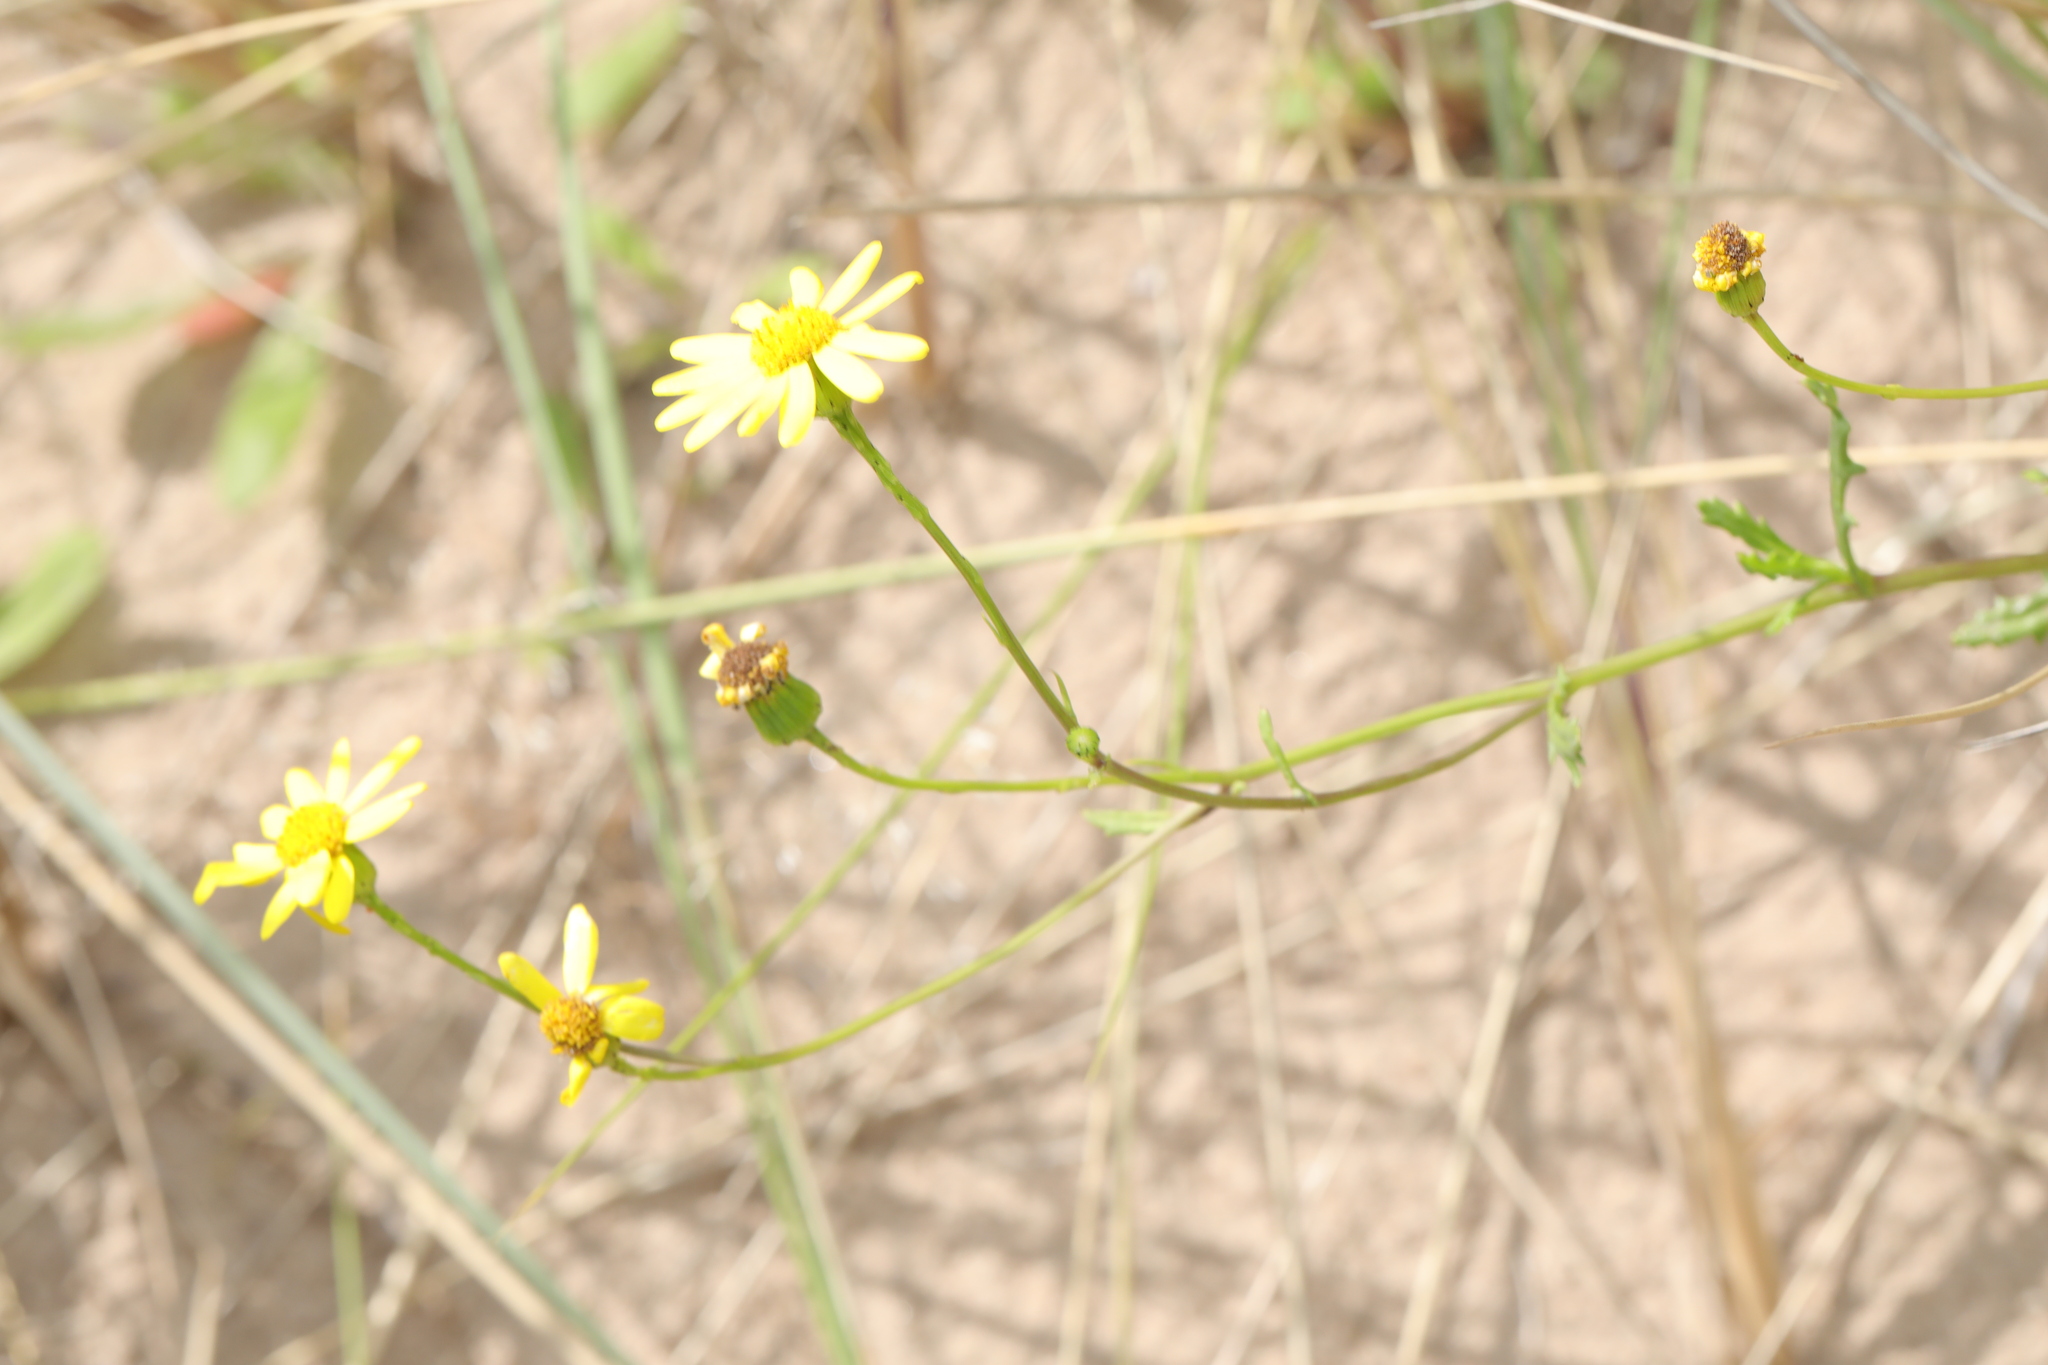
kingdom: Plantae
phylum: Tracheophyta
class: Magnoliopsida
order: Asterales
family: Asteraceae
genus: Senecio
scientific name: Senecio squalidus
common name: Oxford ragwort
